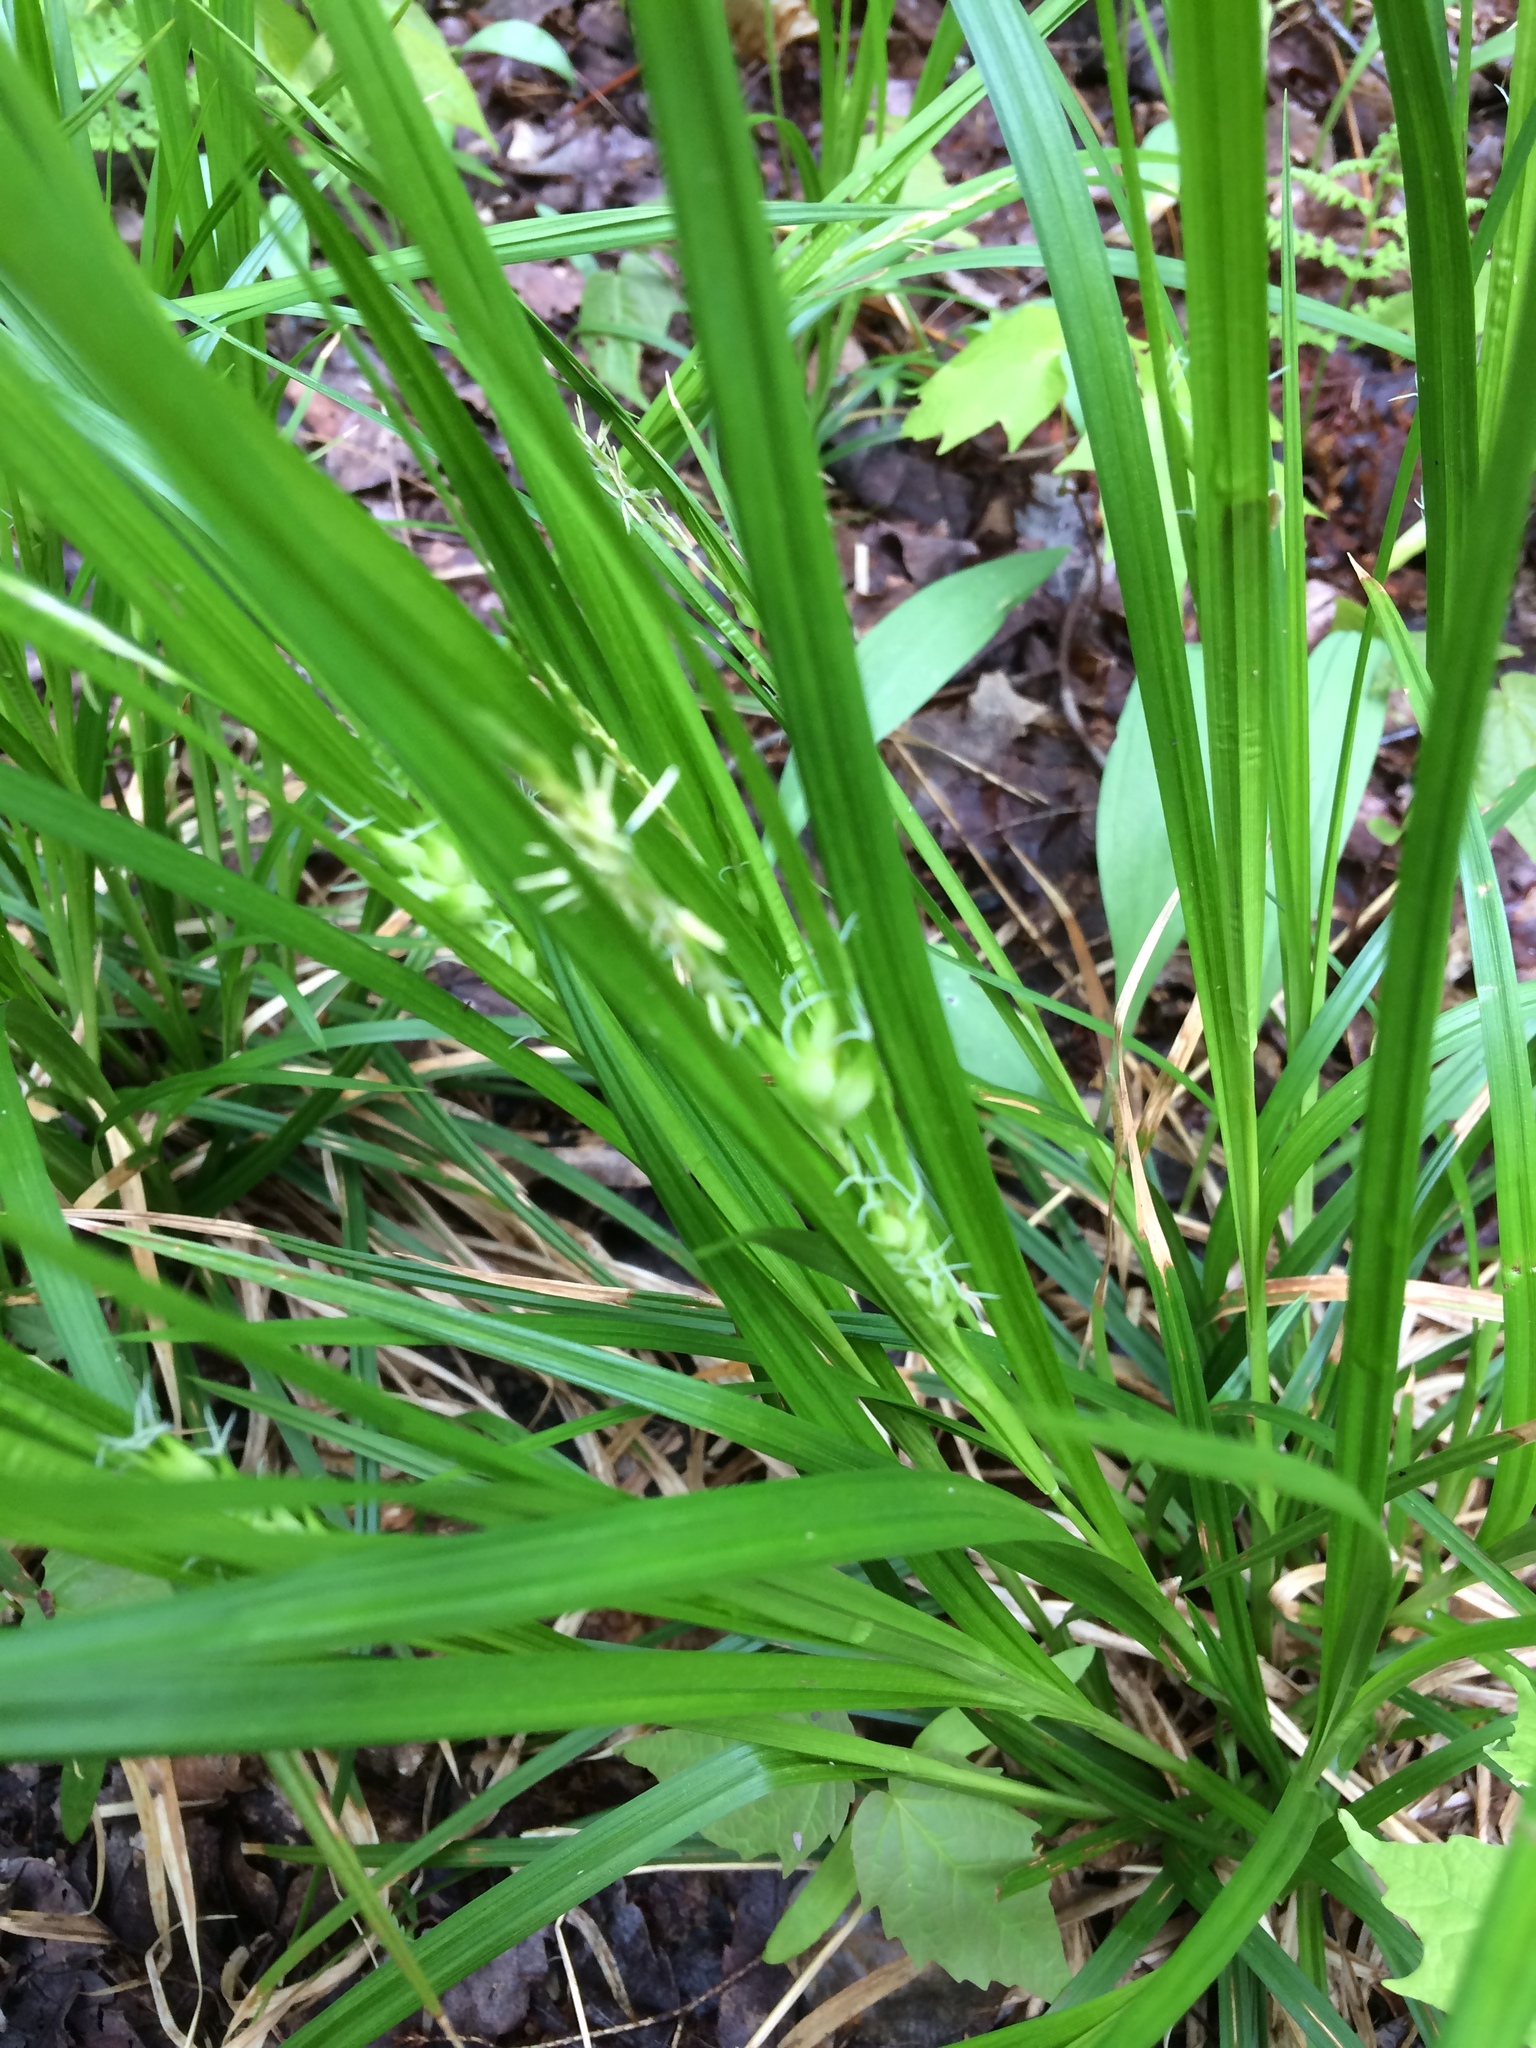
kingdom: Plantae
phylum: Tracheophyta
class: Liliopsida
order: Poales
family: Cyperaceae
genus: Carex
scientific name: Carex intumescens
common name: Greater bladder sedge
